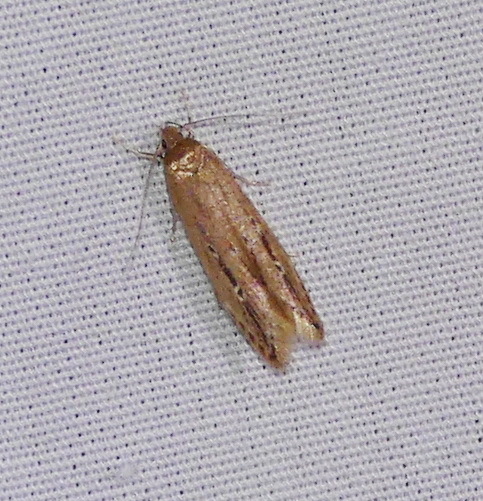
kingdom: Animalia
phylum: Arthropoda
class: Insecta
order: Lepidoptera
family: Cosmopterigidae
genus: Limnaecia
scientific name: Limnaecia phragmitella
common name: Bulrush cosmet
